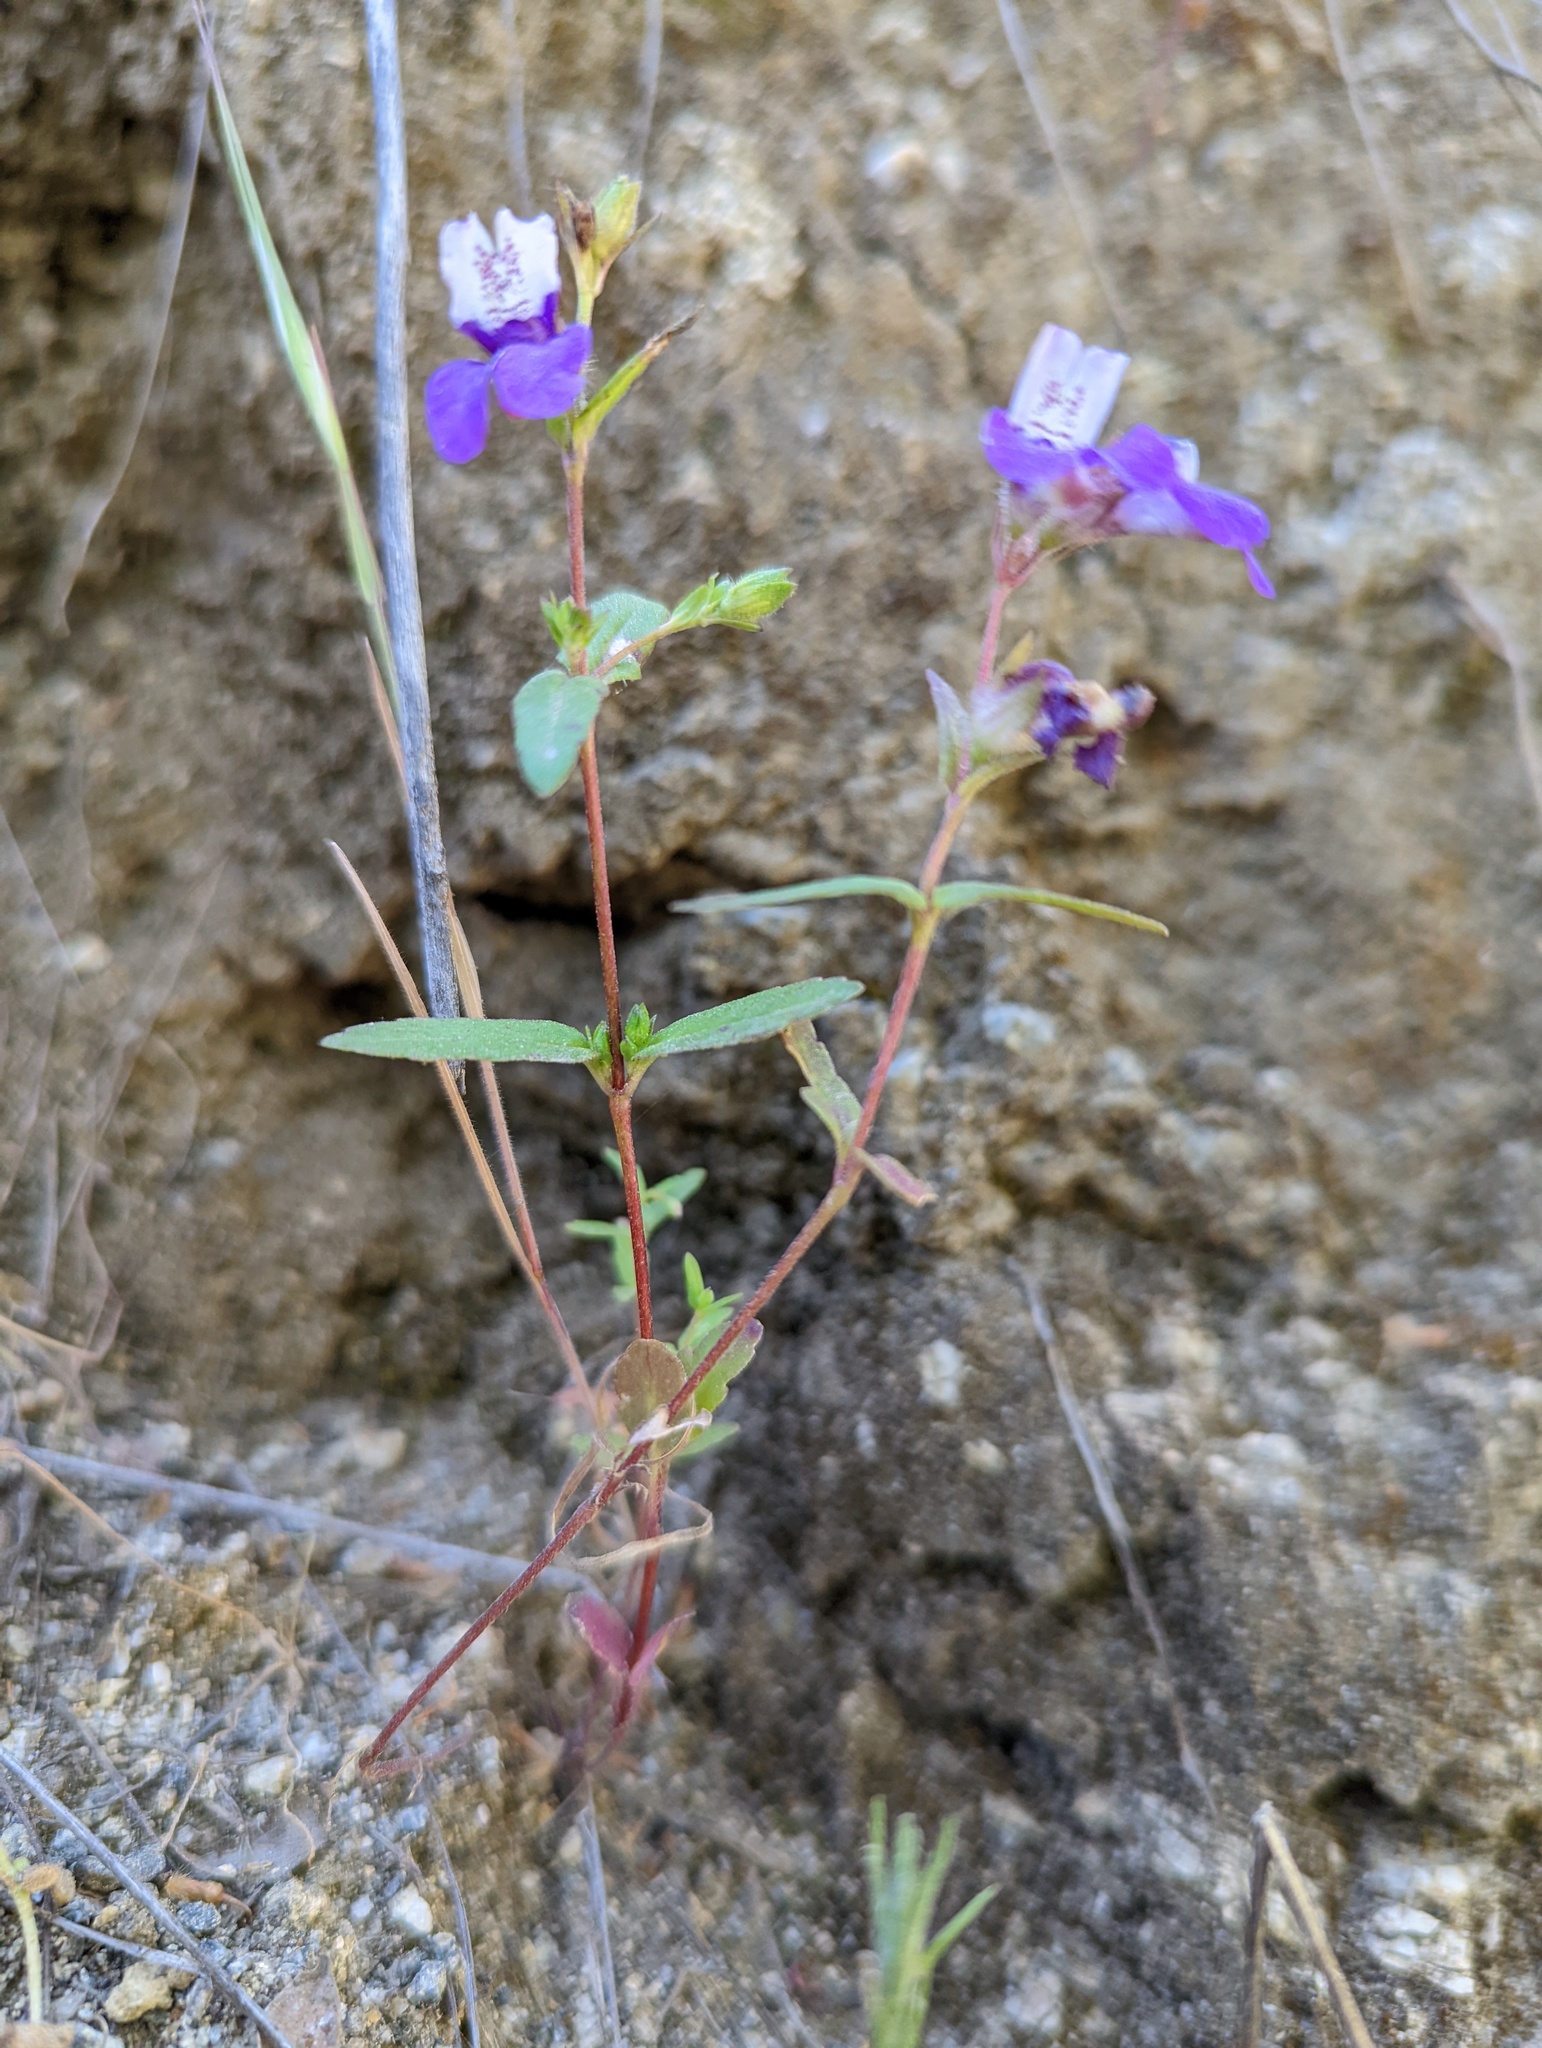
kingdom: Plantae
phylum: Tracheophyta
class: Magnoliopsida
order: Lamiales
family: Plantaginaceae
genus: Collinsia
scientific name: Collinsia heterophylla
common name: Chinese-houses
